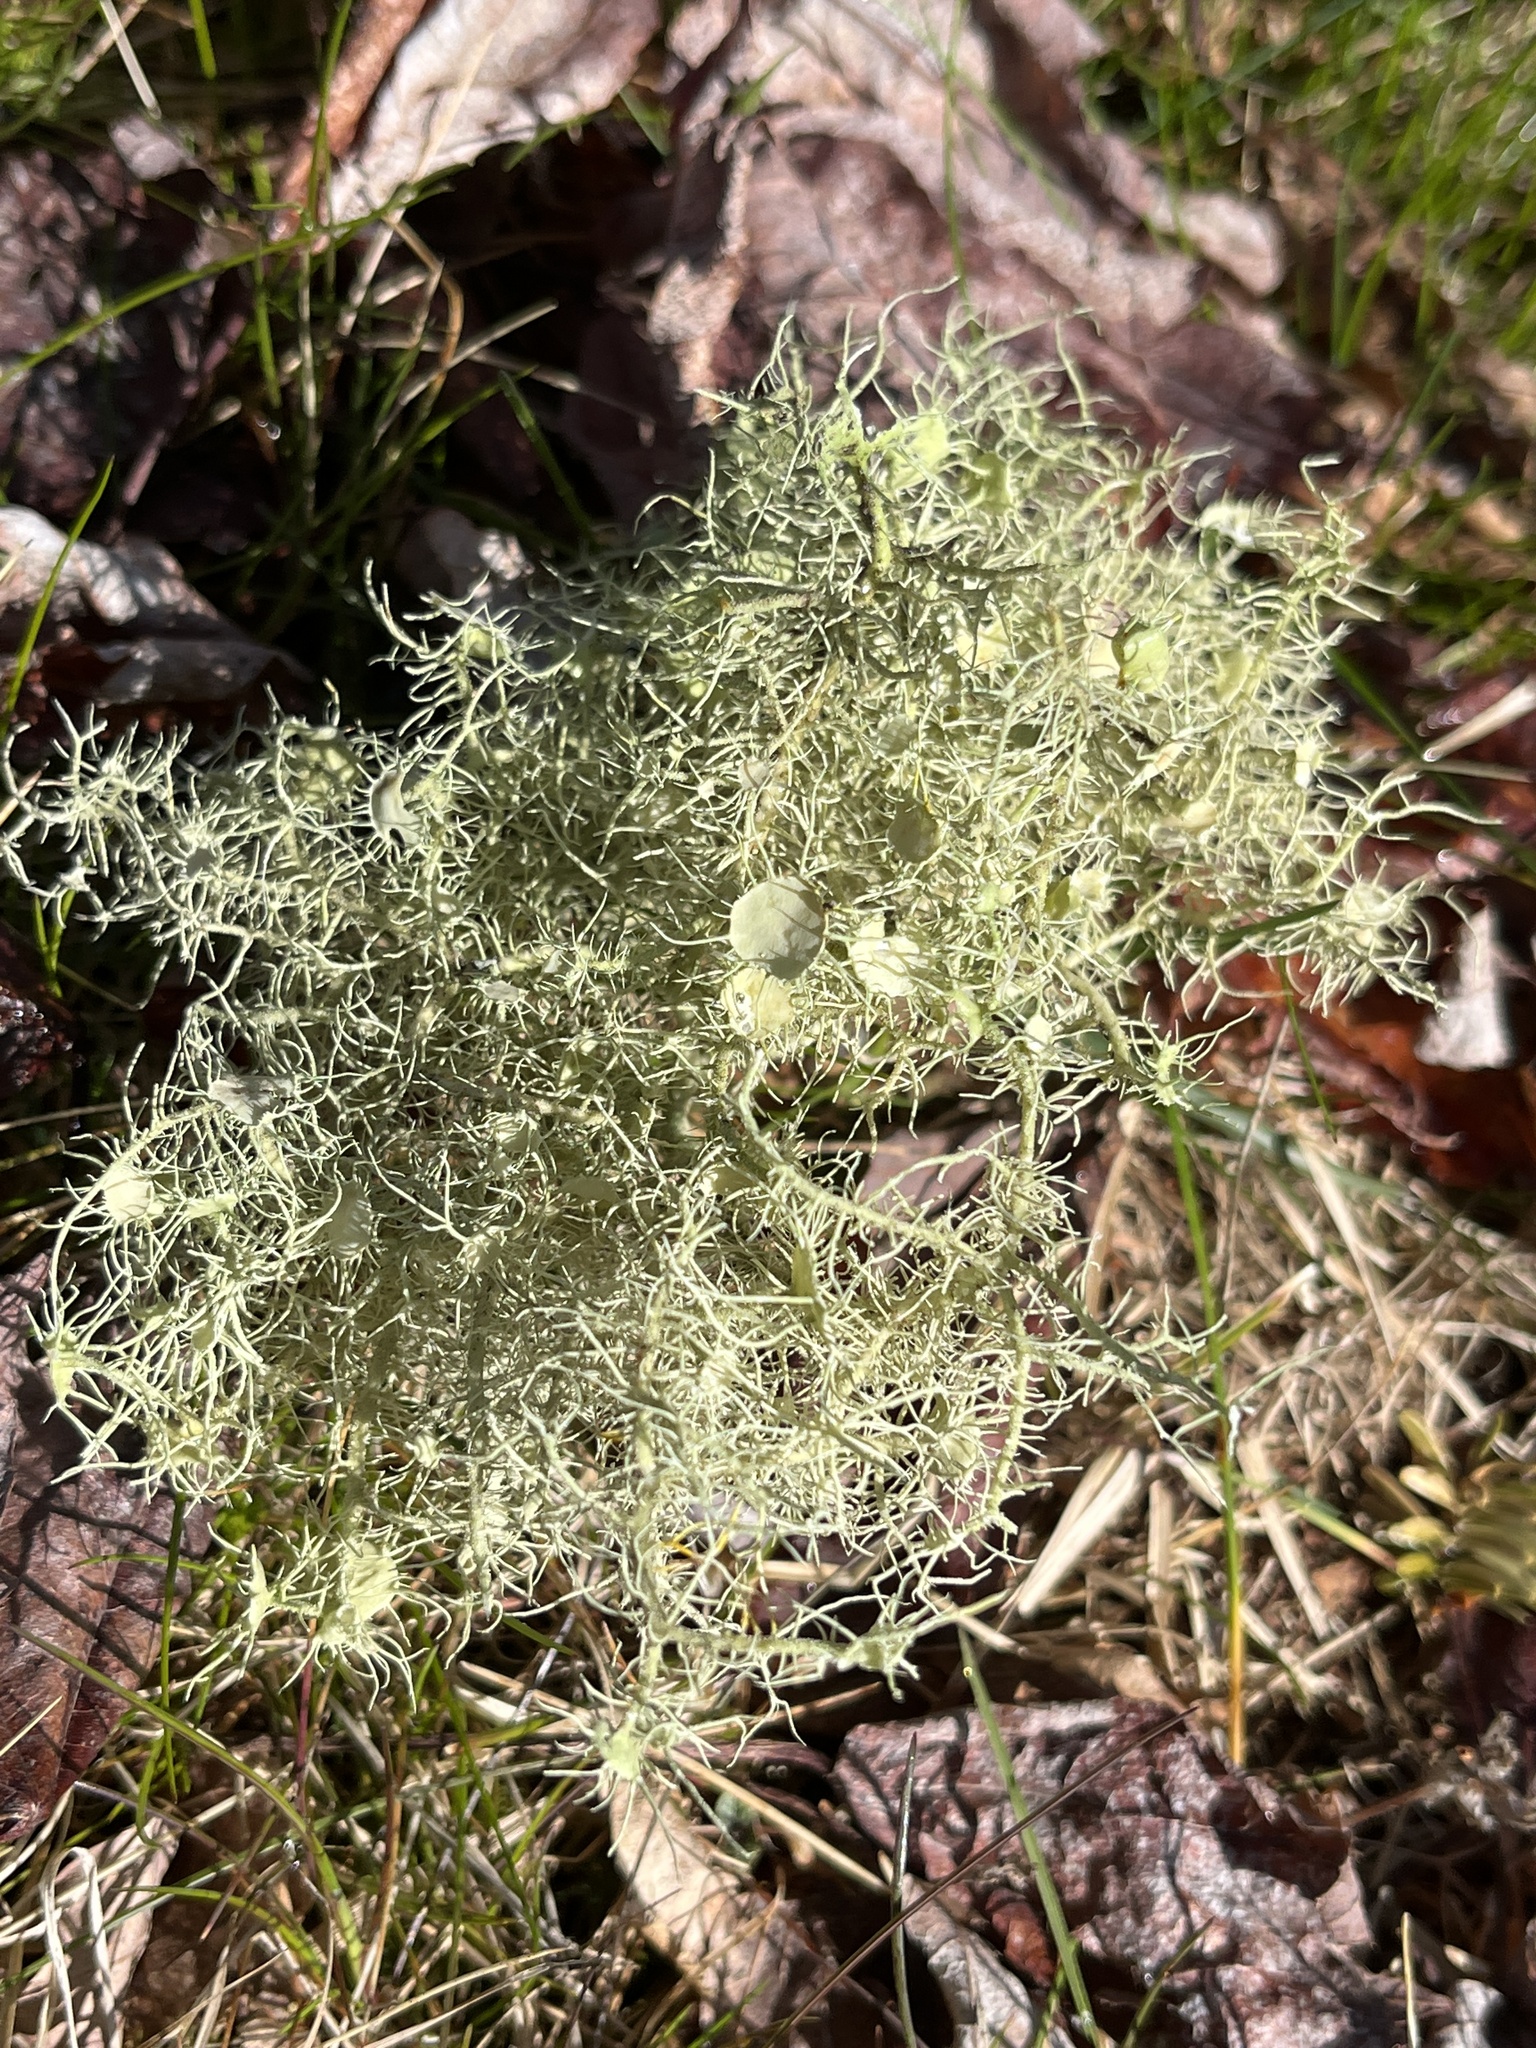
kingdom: Fungi
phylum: Ascomycota
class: Lecanoromycetes
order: Lecanorales
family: Parmeliaceae
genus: Usnea
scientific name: Usnea strigosa
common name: Bushy beard lichen
